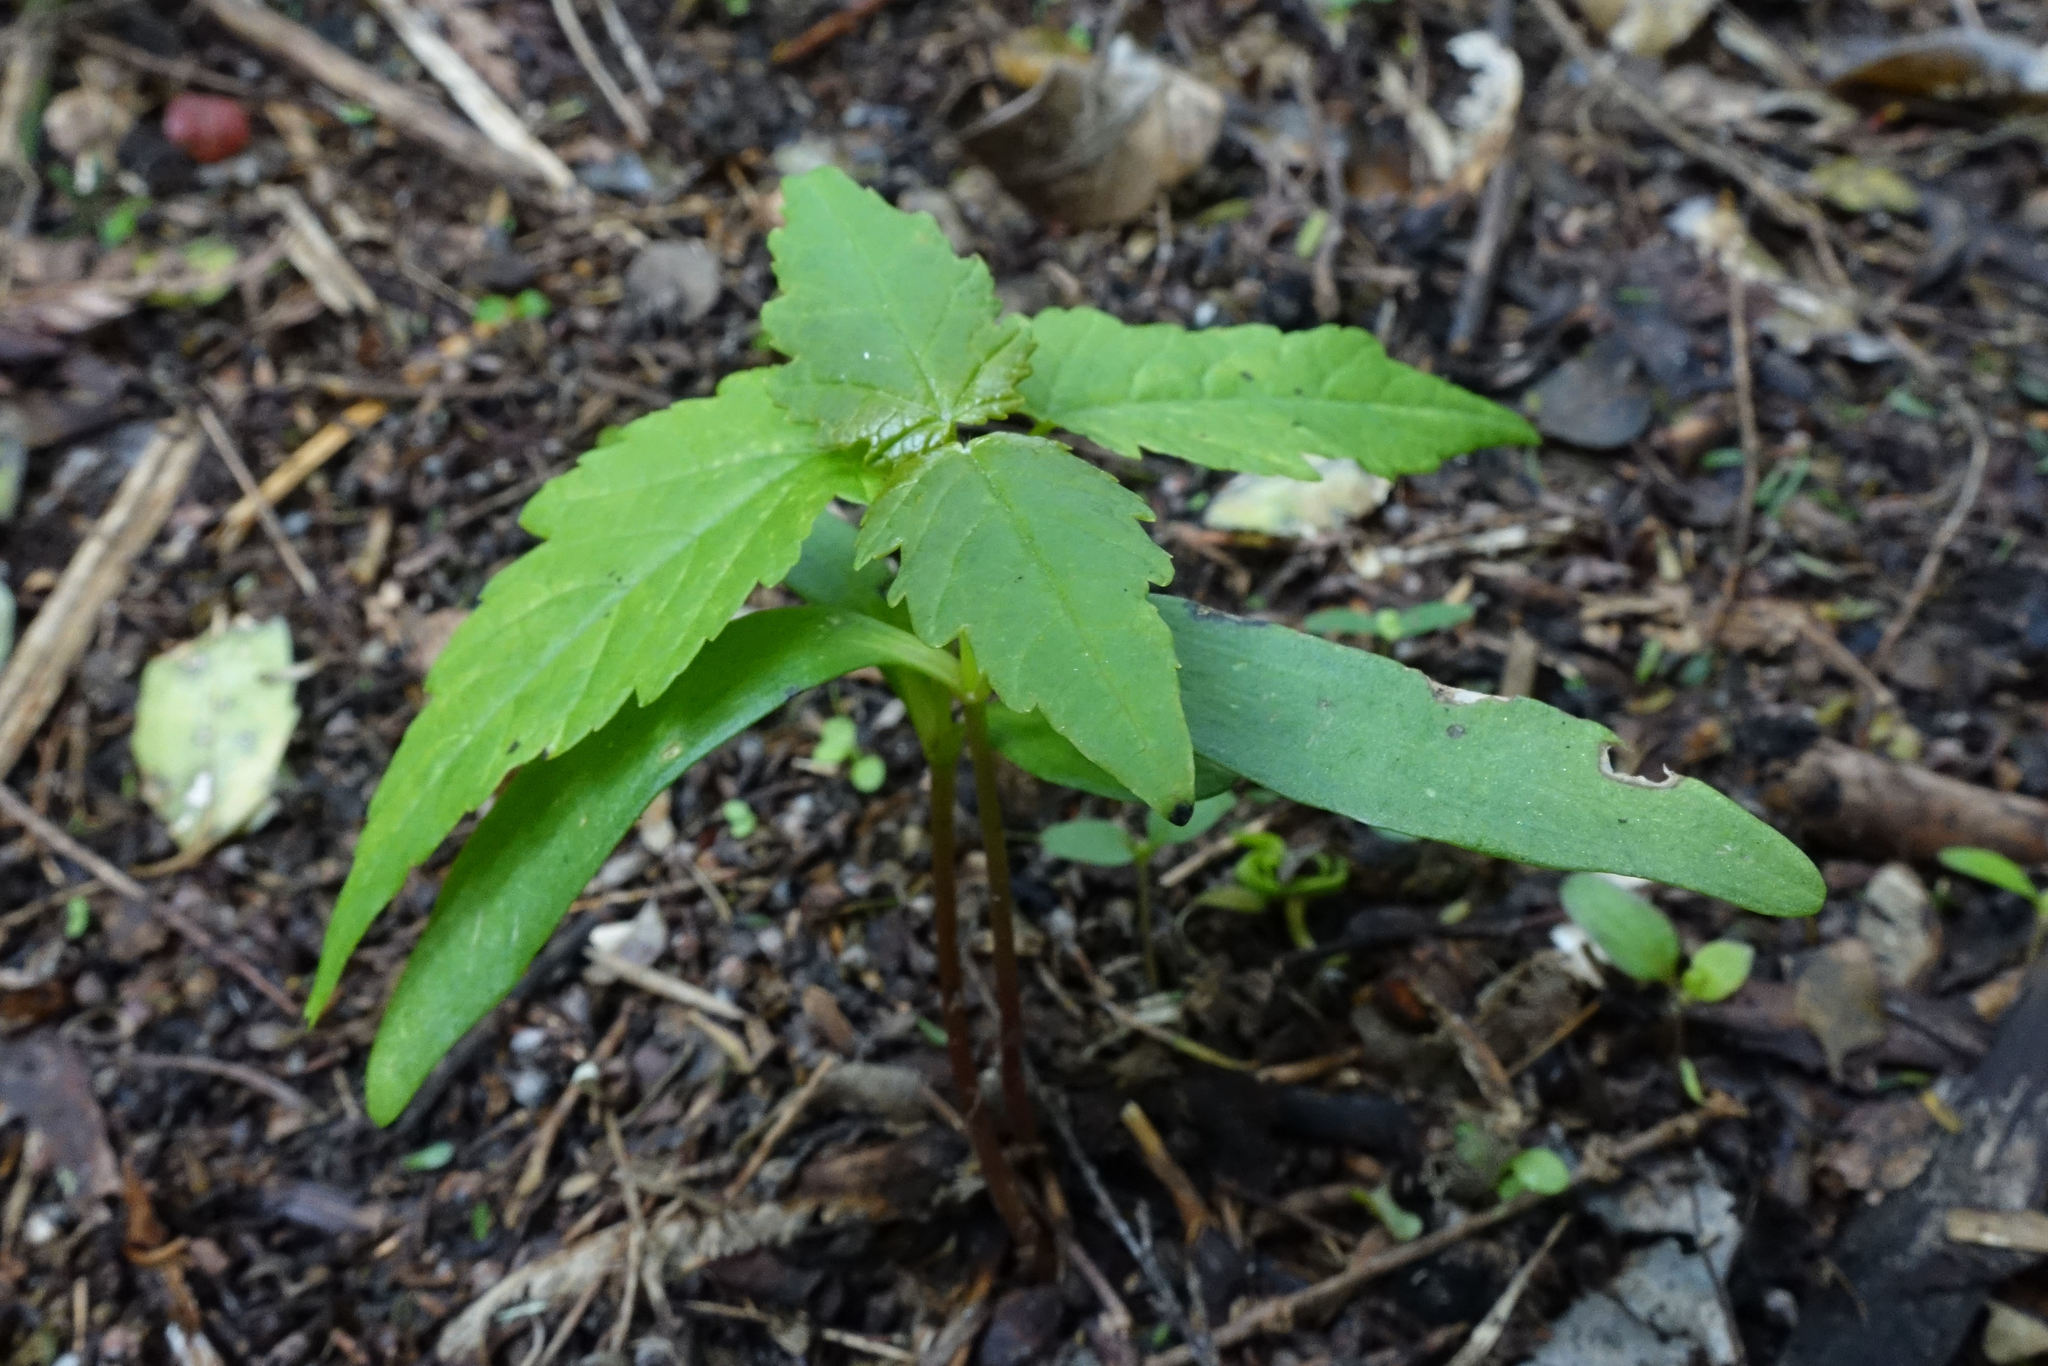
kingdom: Plantae
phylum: Tracheophyta
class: Magnoliopsida
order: Sapindales
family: Sapindaceae
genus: Acer
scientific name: Acer pseudoplatanus
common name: Sycamore
